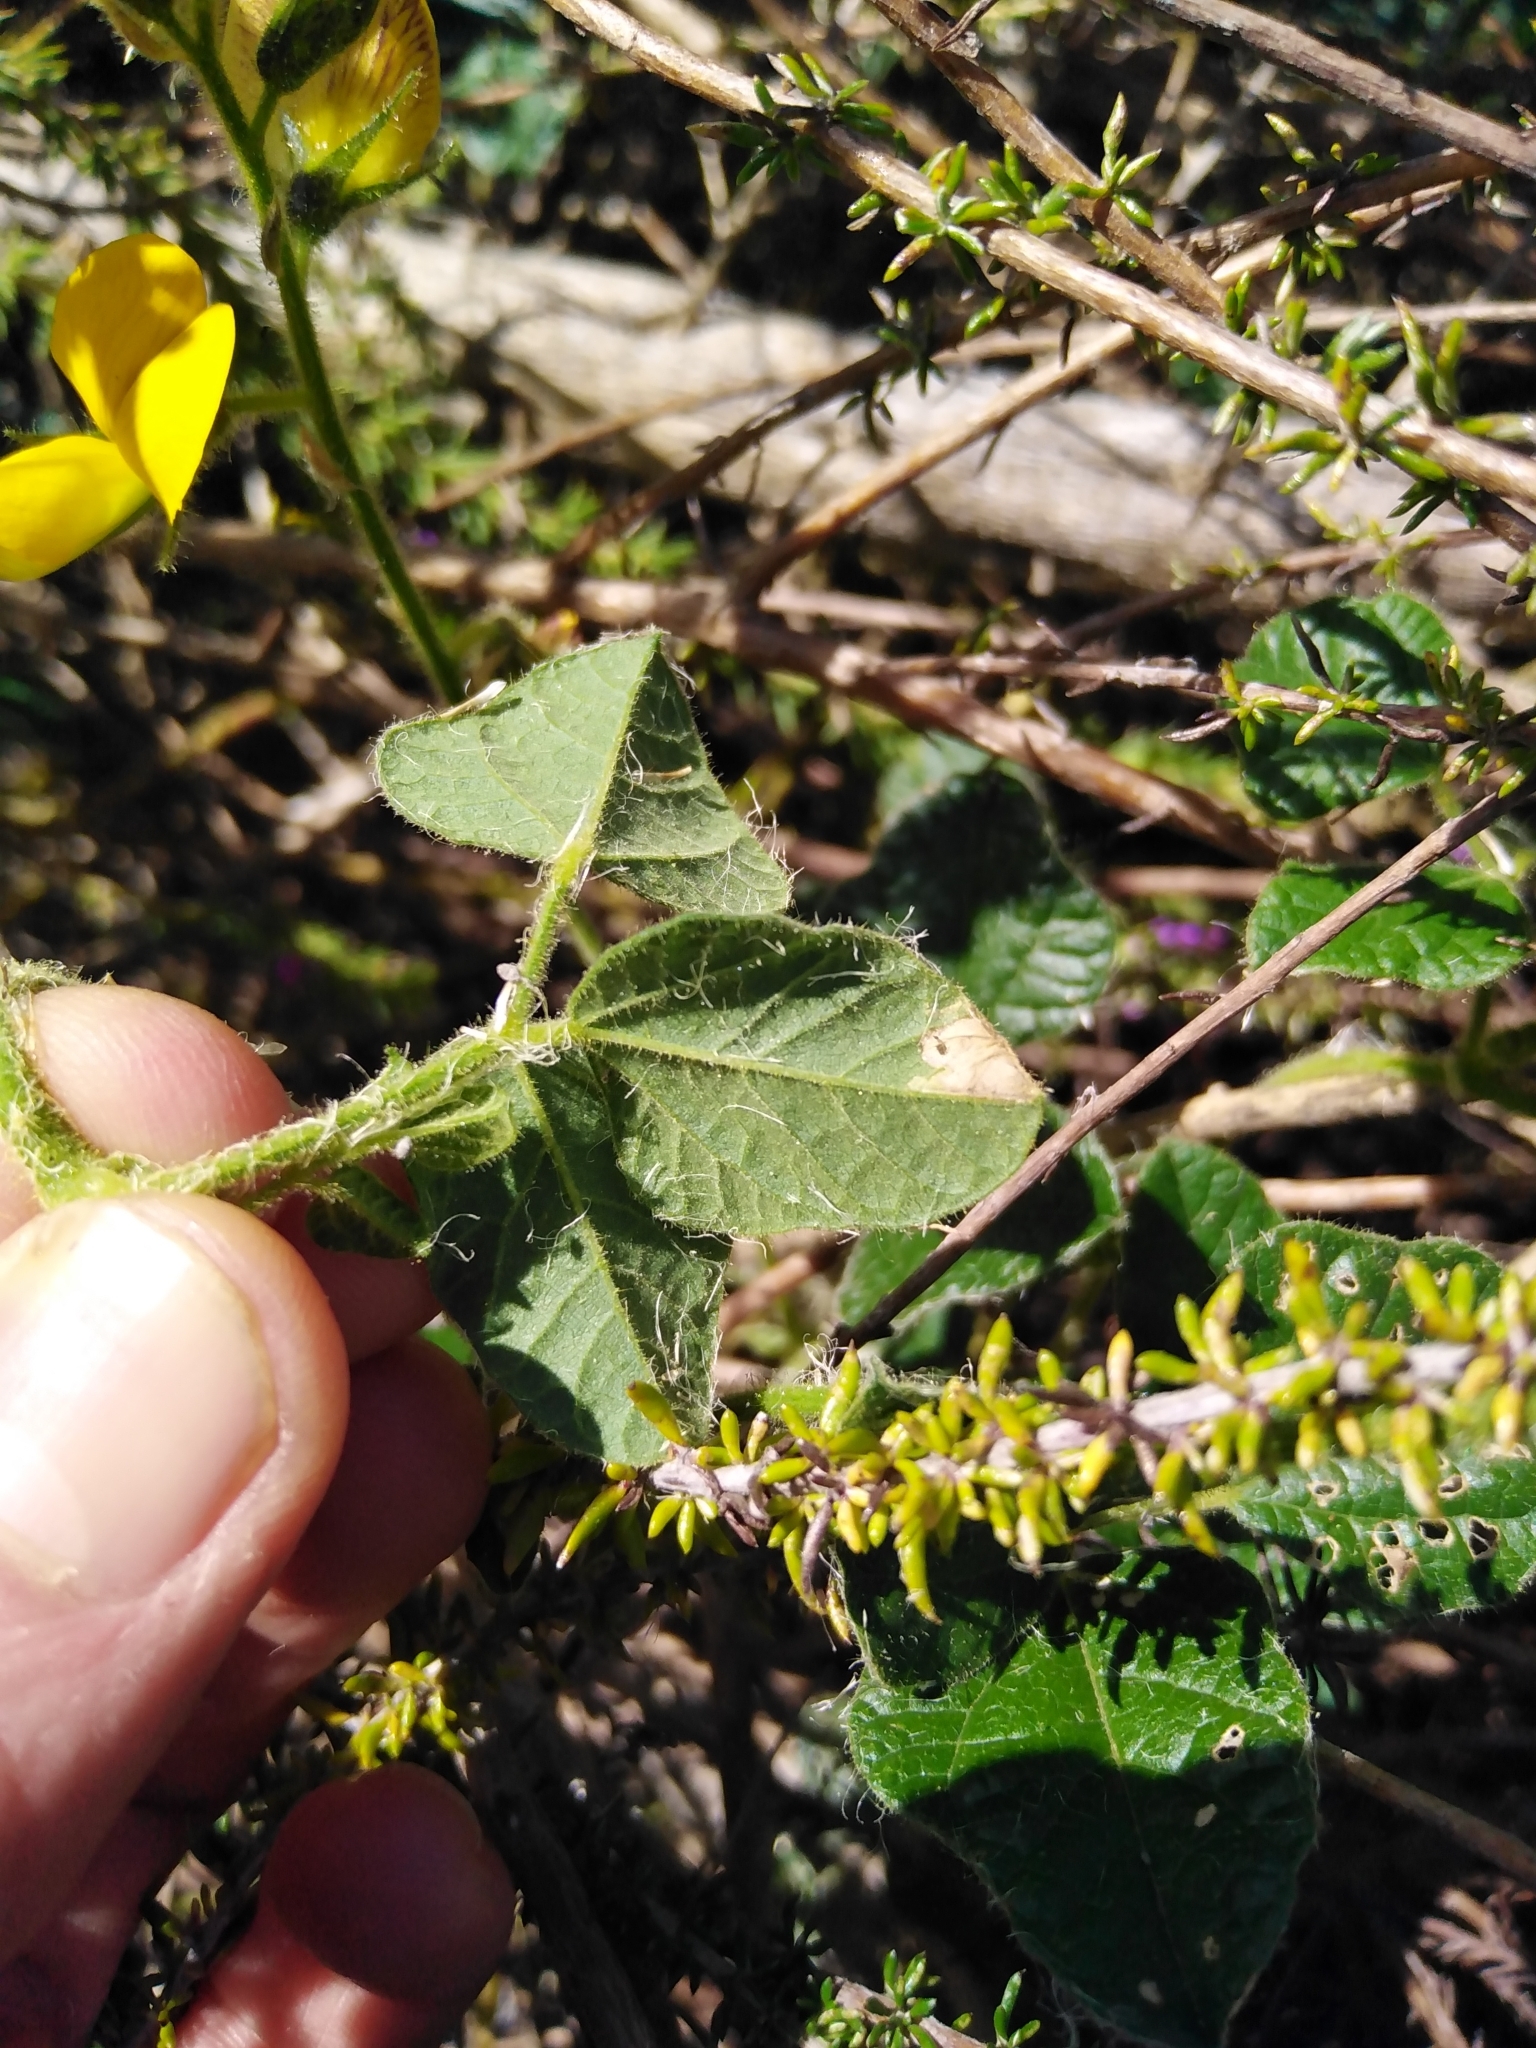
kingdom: Plantae
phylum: Tracheophyta
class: Magnoliopsida
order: Fabales
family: Fabaceae
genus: Bolusafra
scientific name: Bolusafra bituminosa
